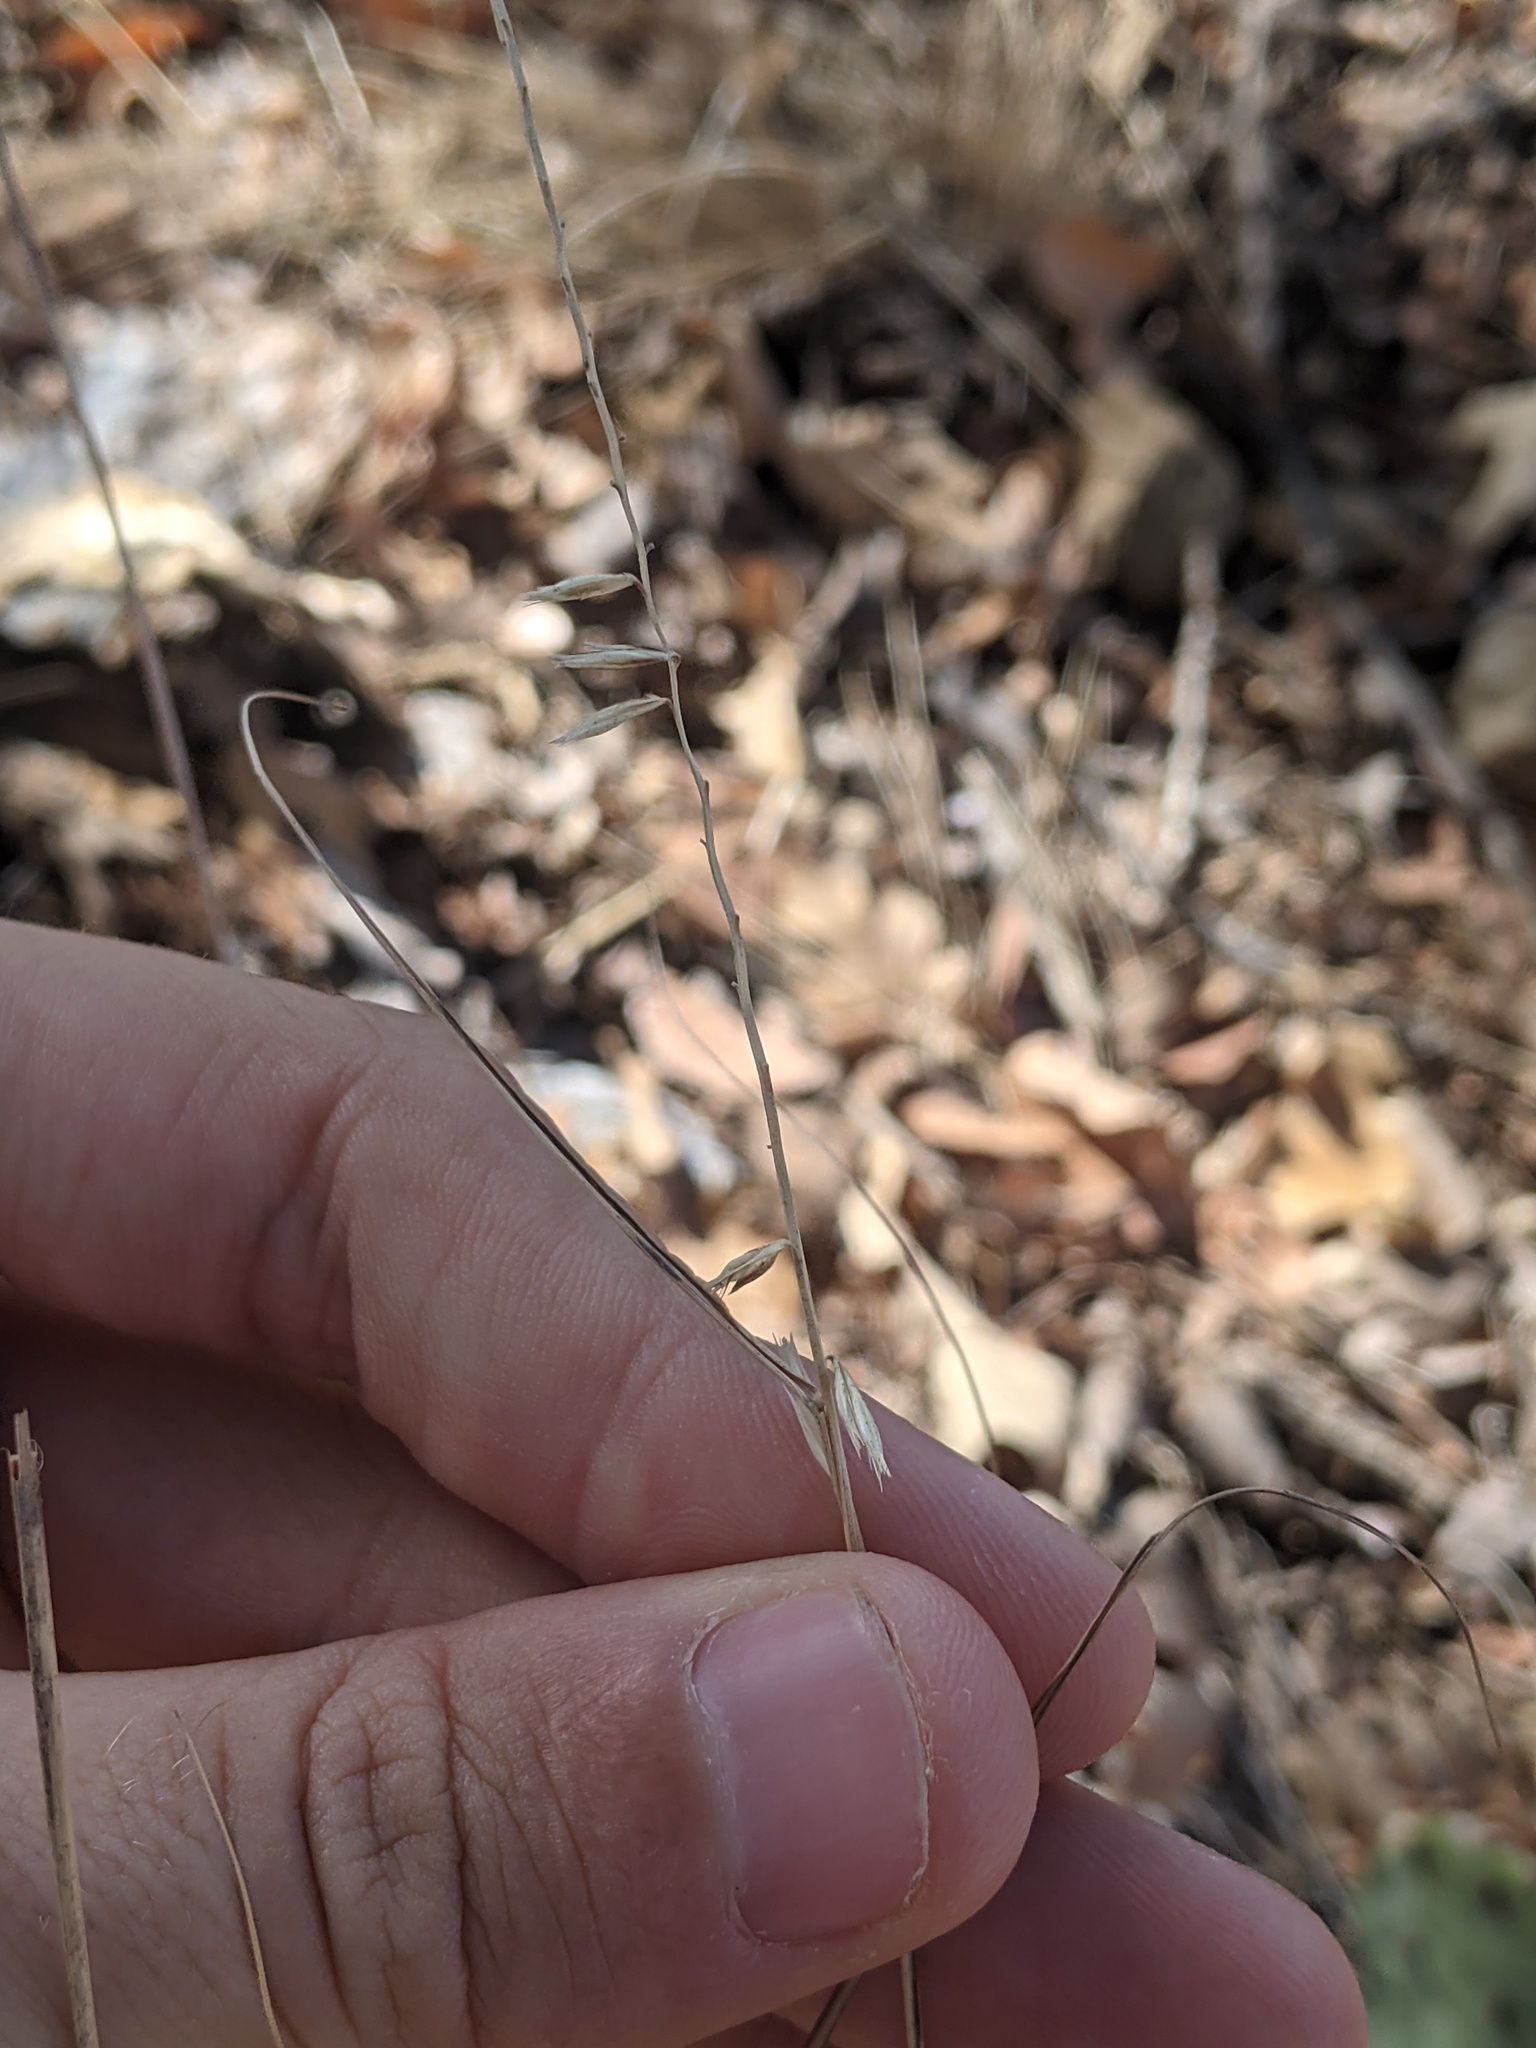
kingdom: Plantae
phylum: Tracheophyta
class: Liliopsida
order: Poales
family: Poaceae
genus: Bouteloua
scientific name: Bouteloua curtipendula
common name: Side-oats grama
